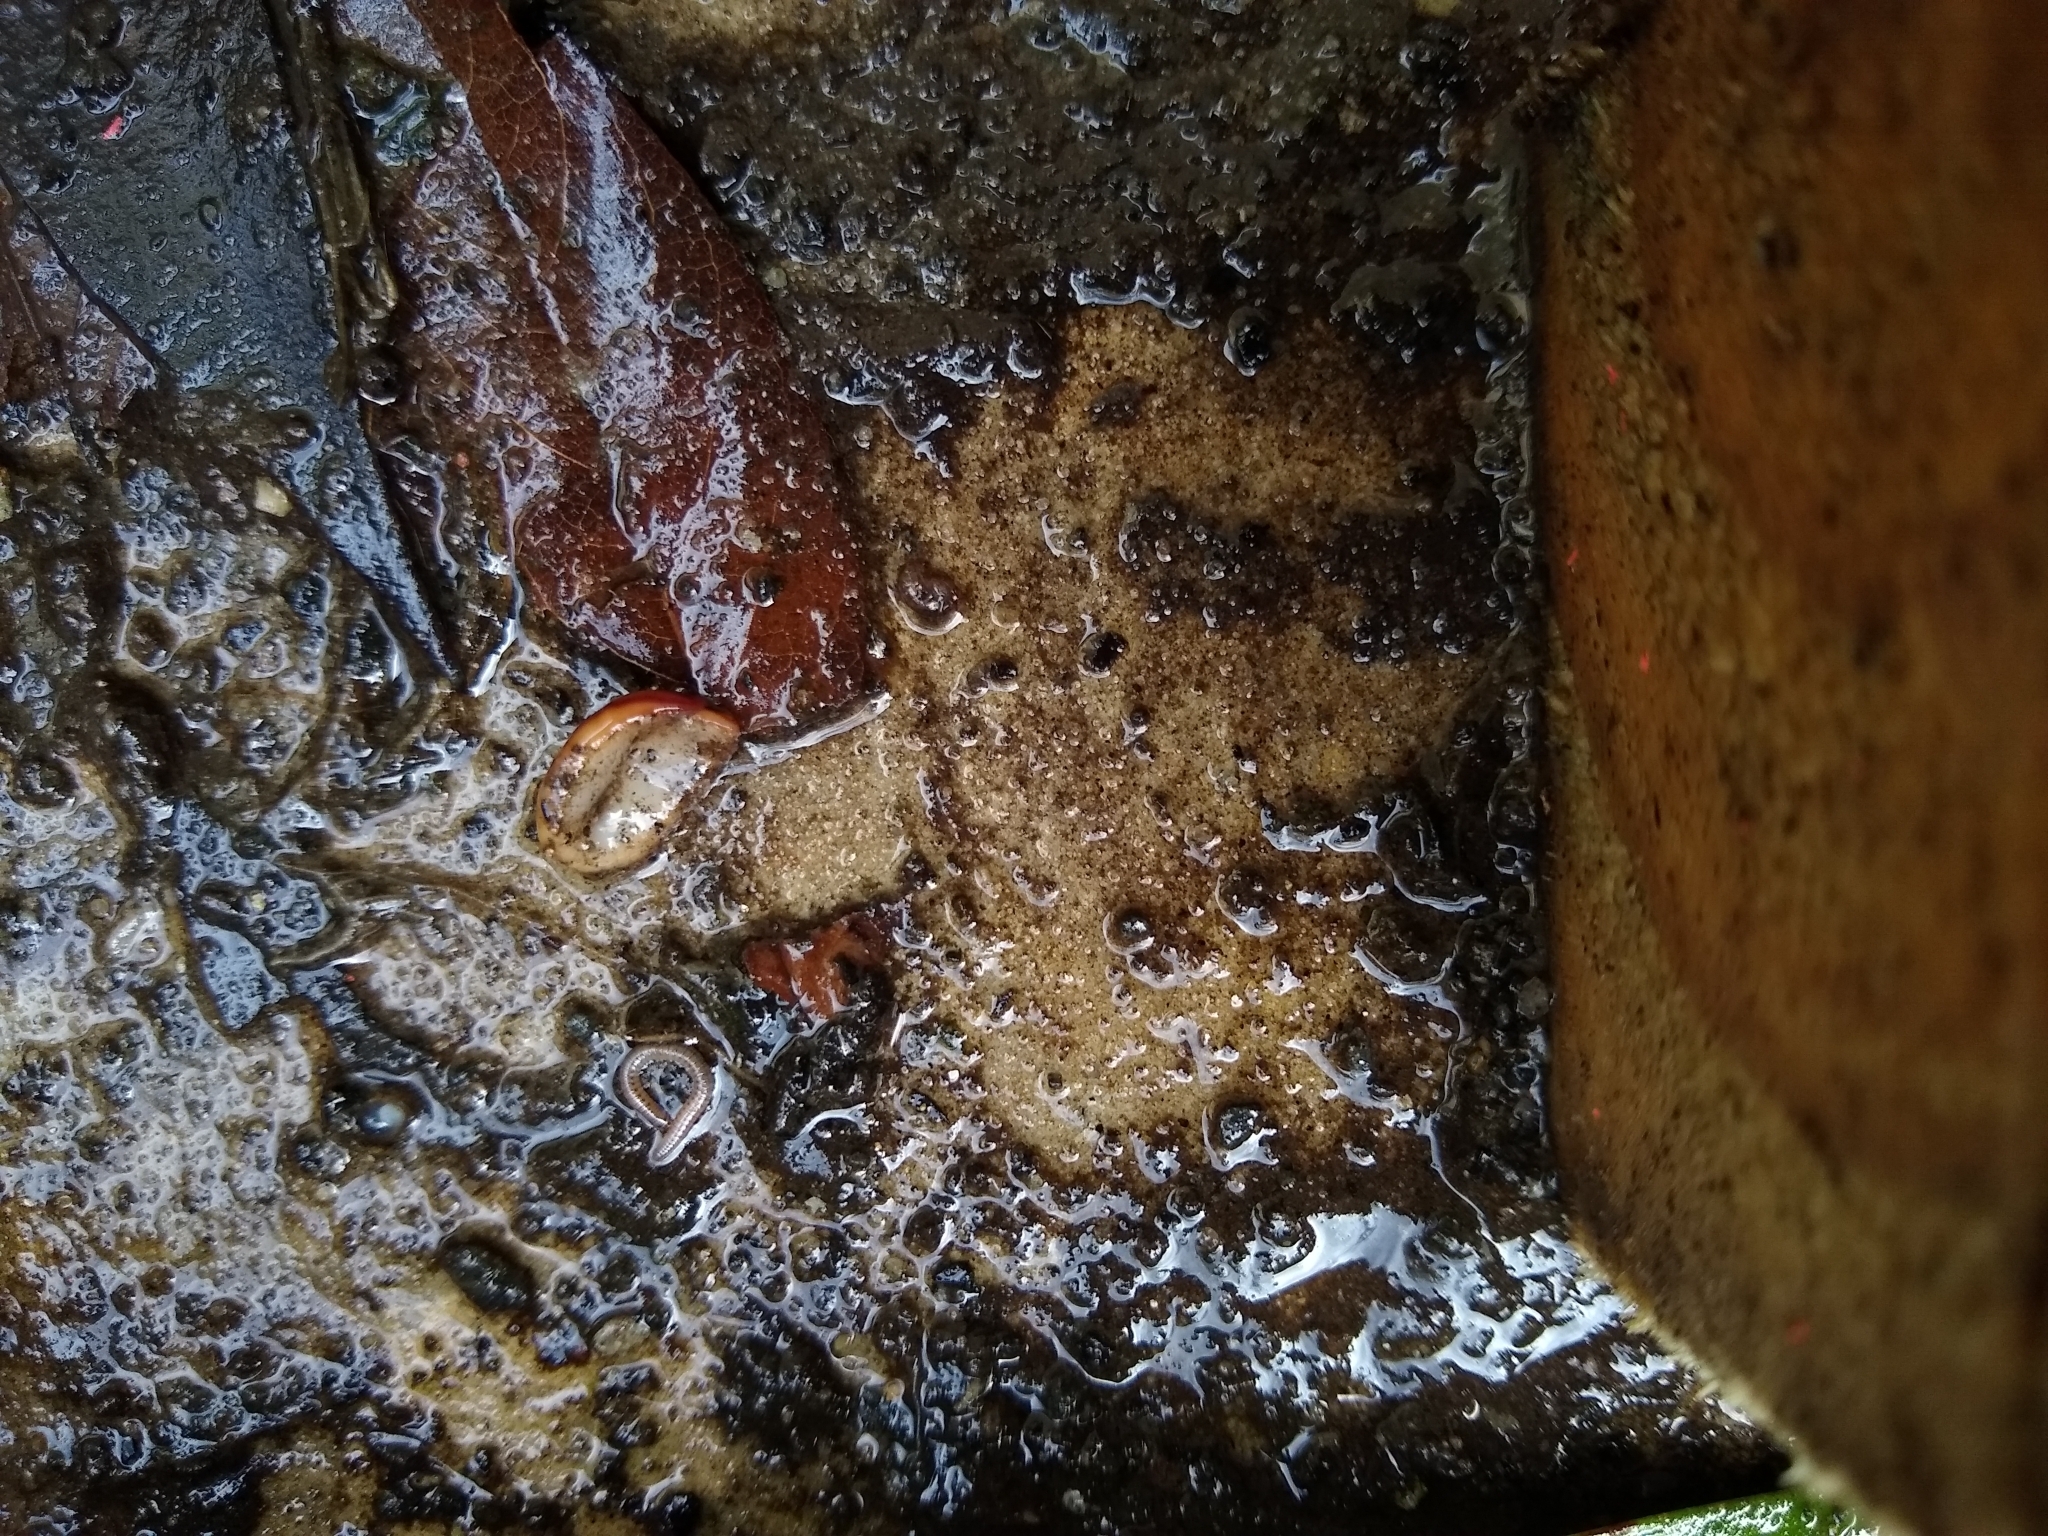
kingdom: Animalia
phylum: Platyhelminthes
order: Tricladida
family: Geoplanidae
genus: Anzoplana
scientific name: Anzoplana trilineata
